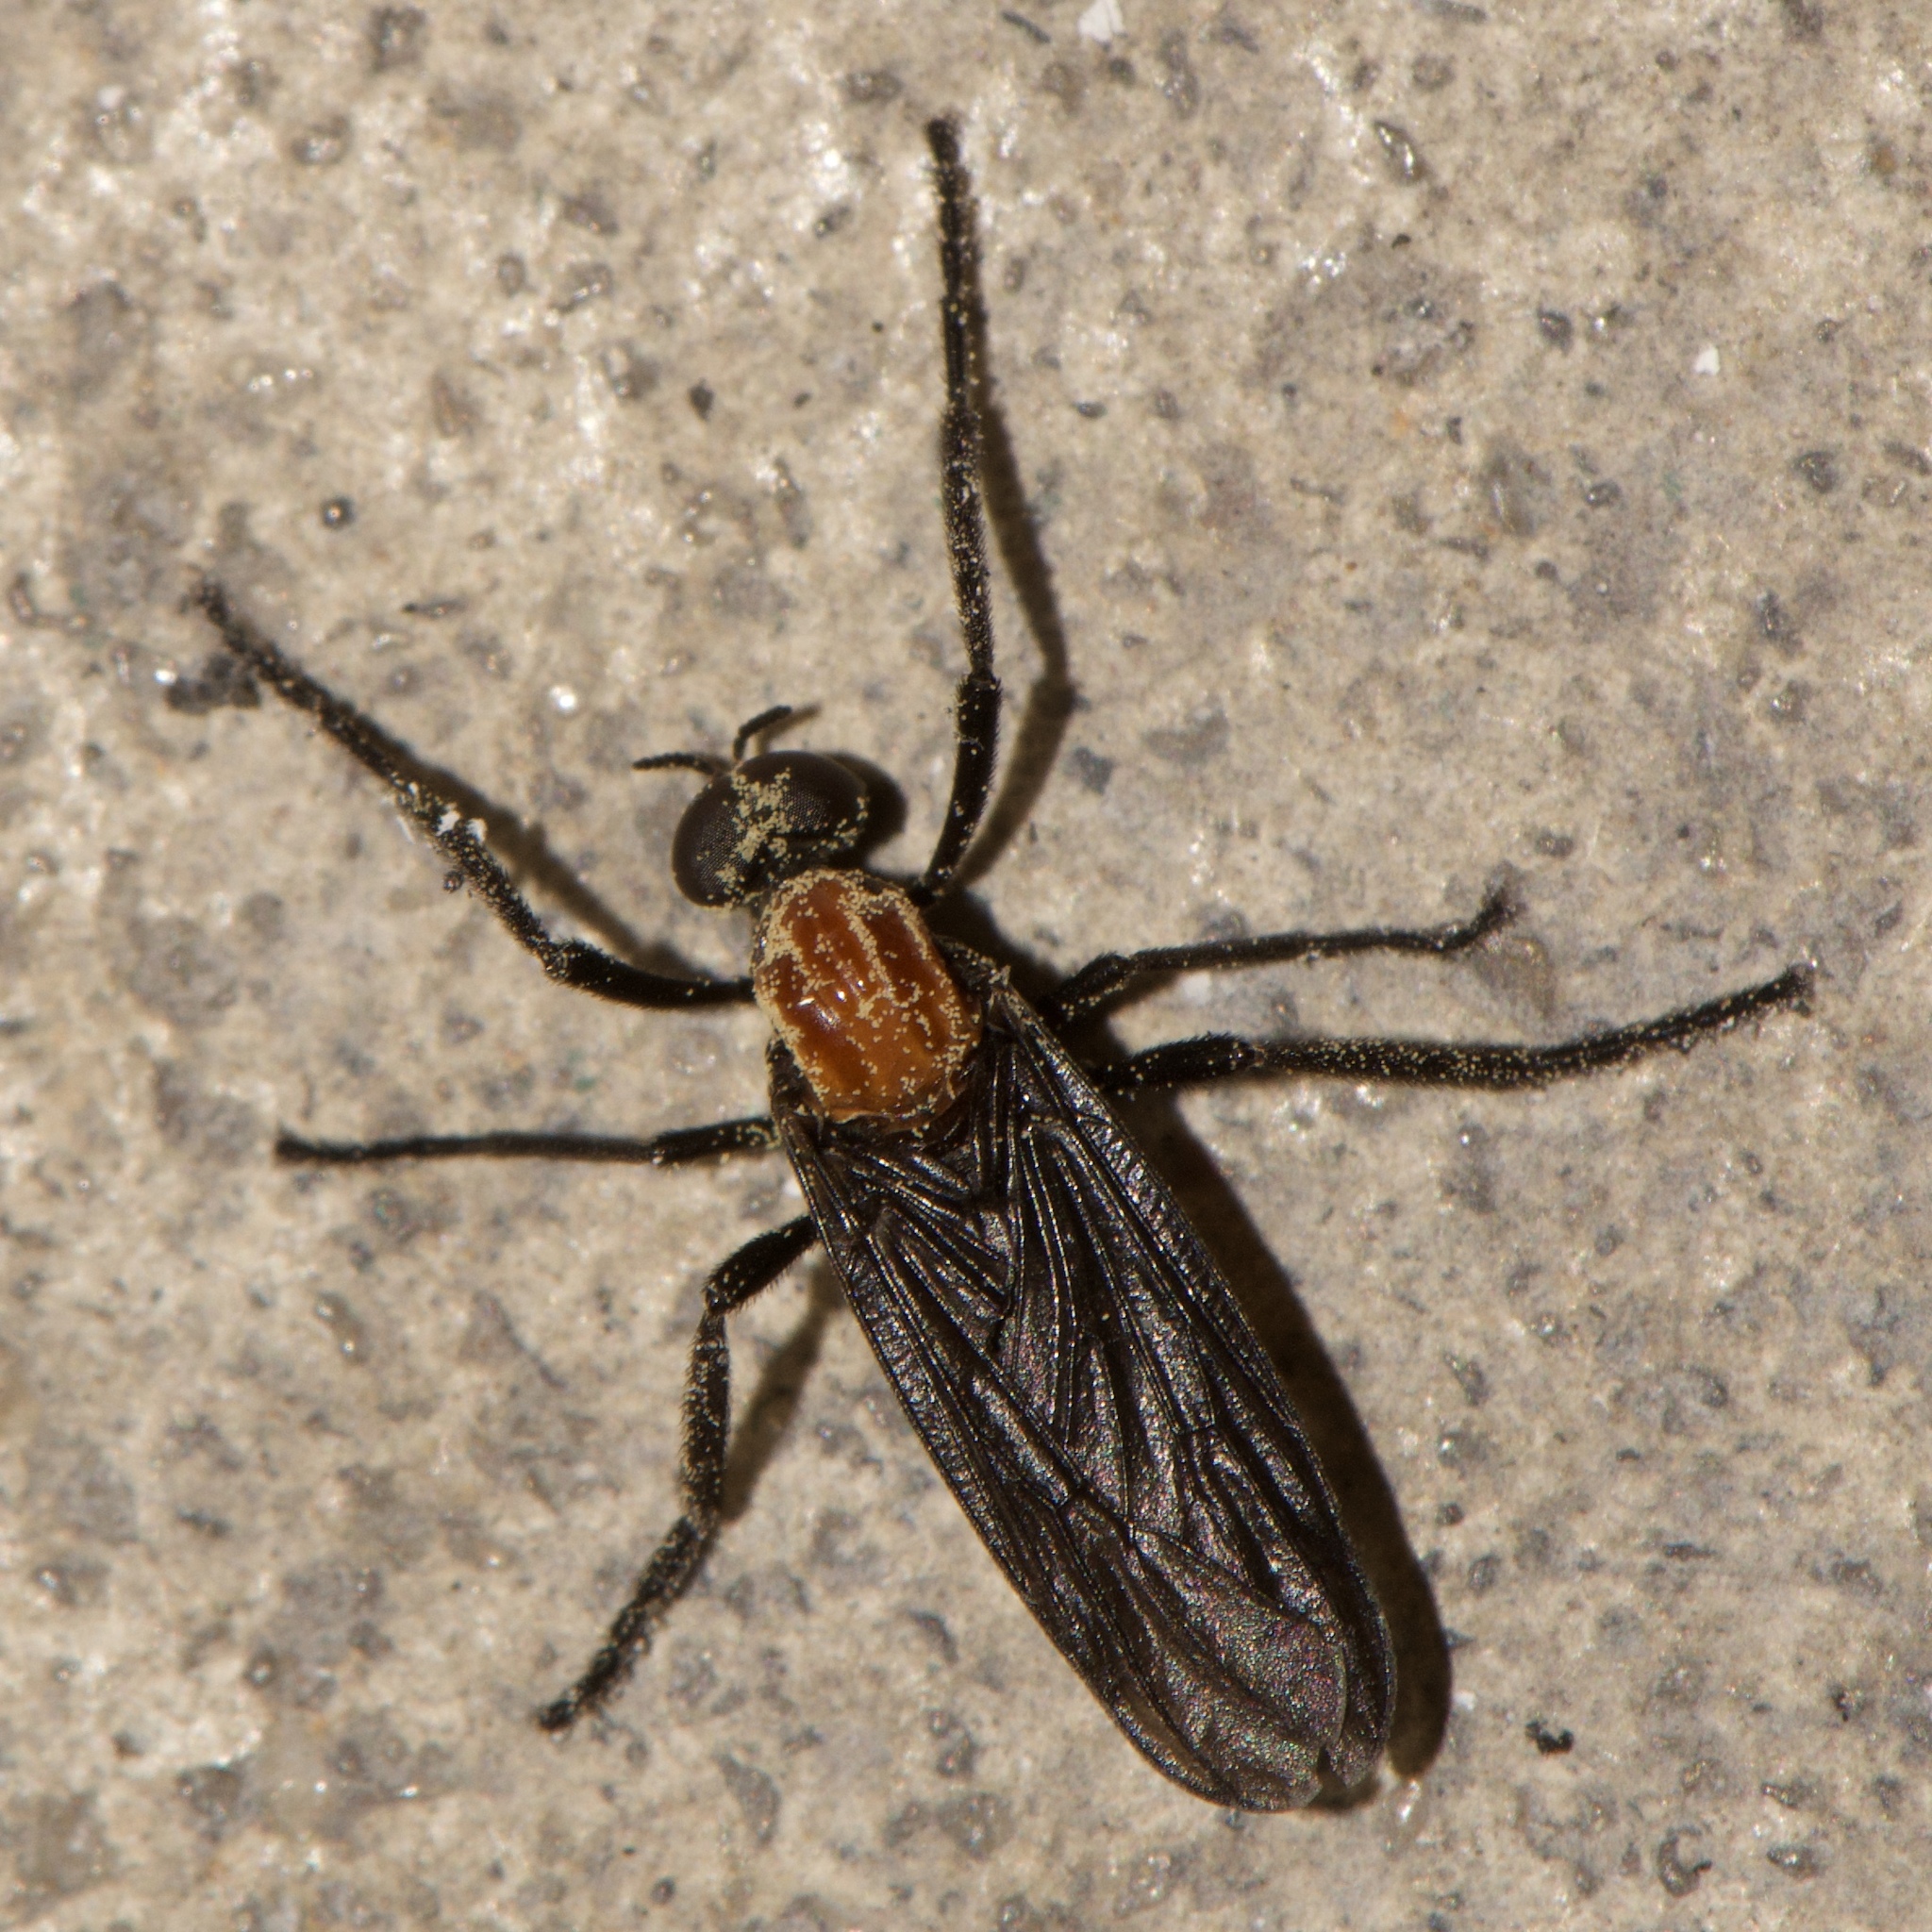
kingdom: Animalia
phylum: Arthropoda
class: Insecta
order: Diptera
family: Bibionidae
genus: Plecia
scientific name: Plecia nearctica
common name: March fly
